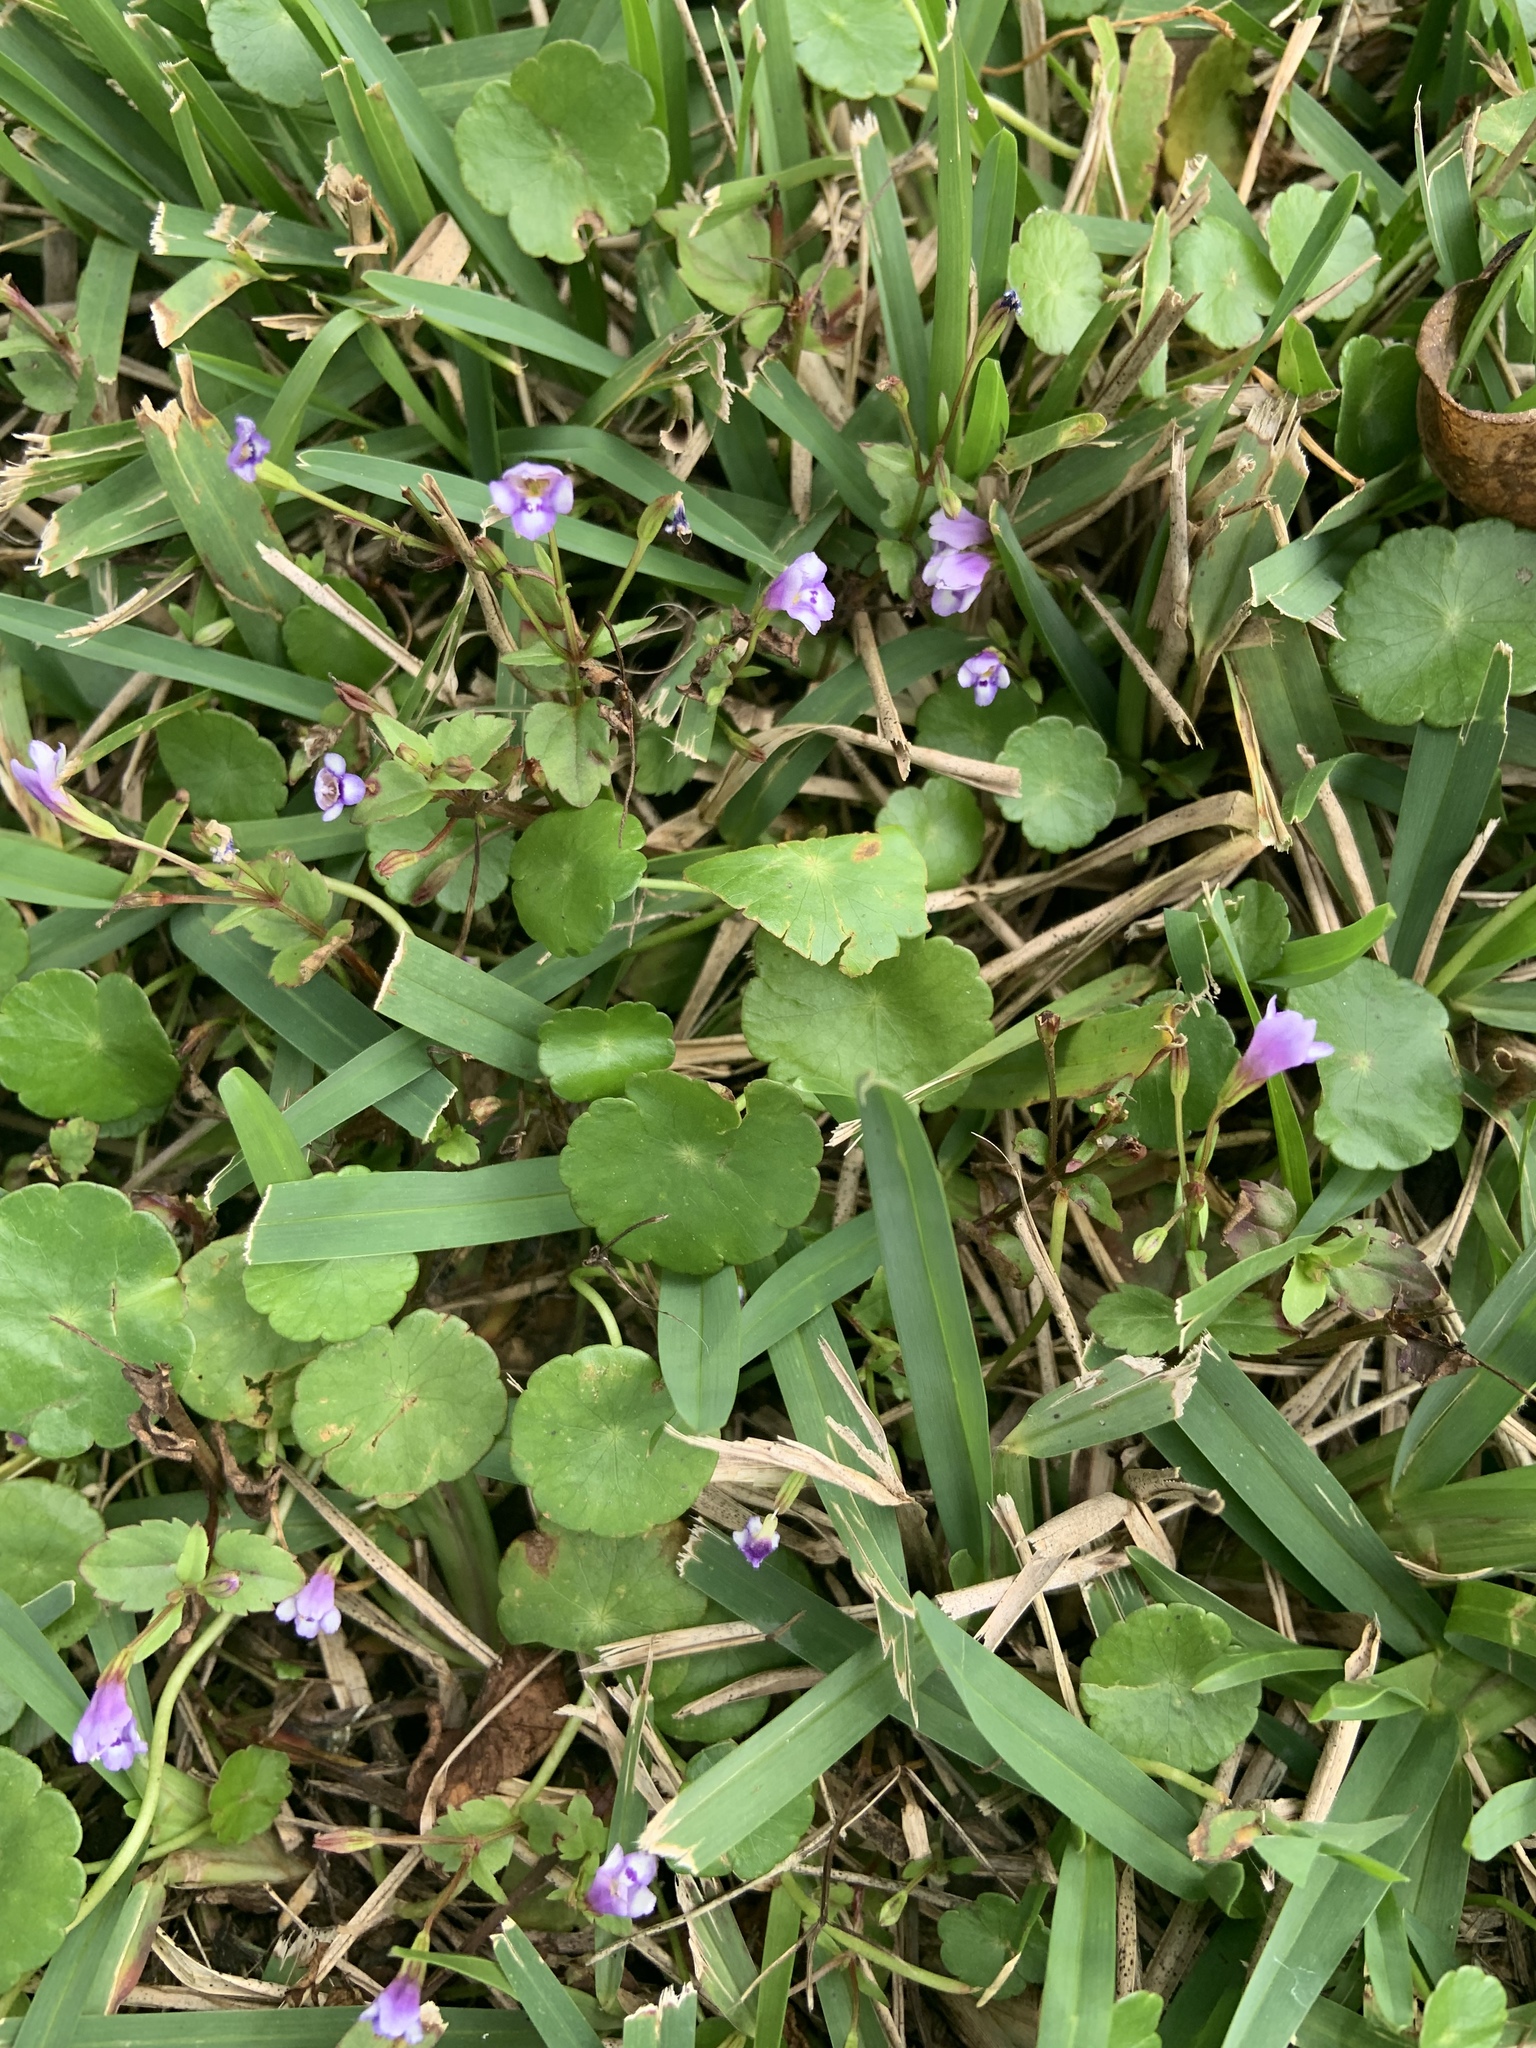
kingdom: Plantae
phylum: Tracheophyta
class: Magnoliopsida
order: Lamiales
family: Linderniaceae
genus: Torenia
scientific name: Torenia crustacea
